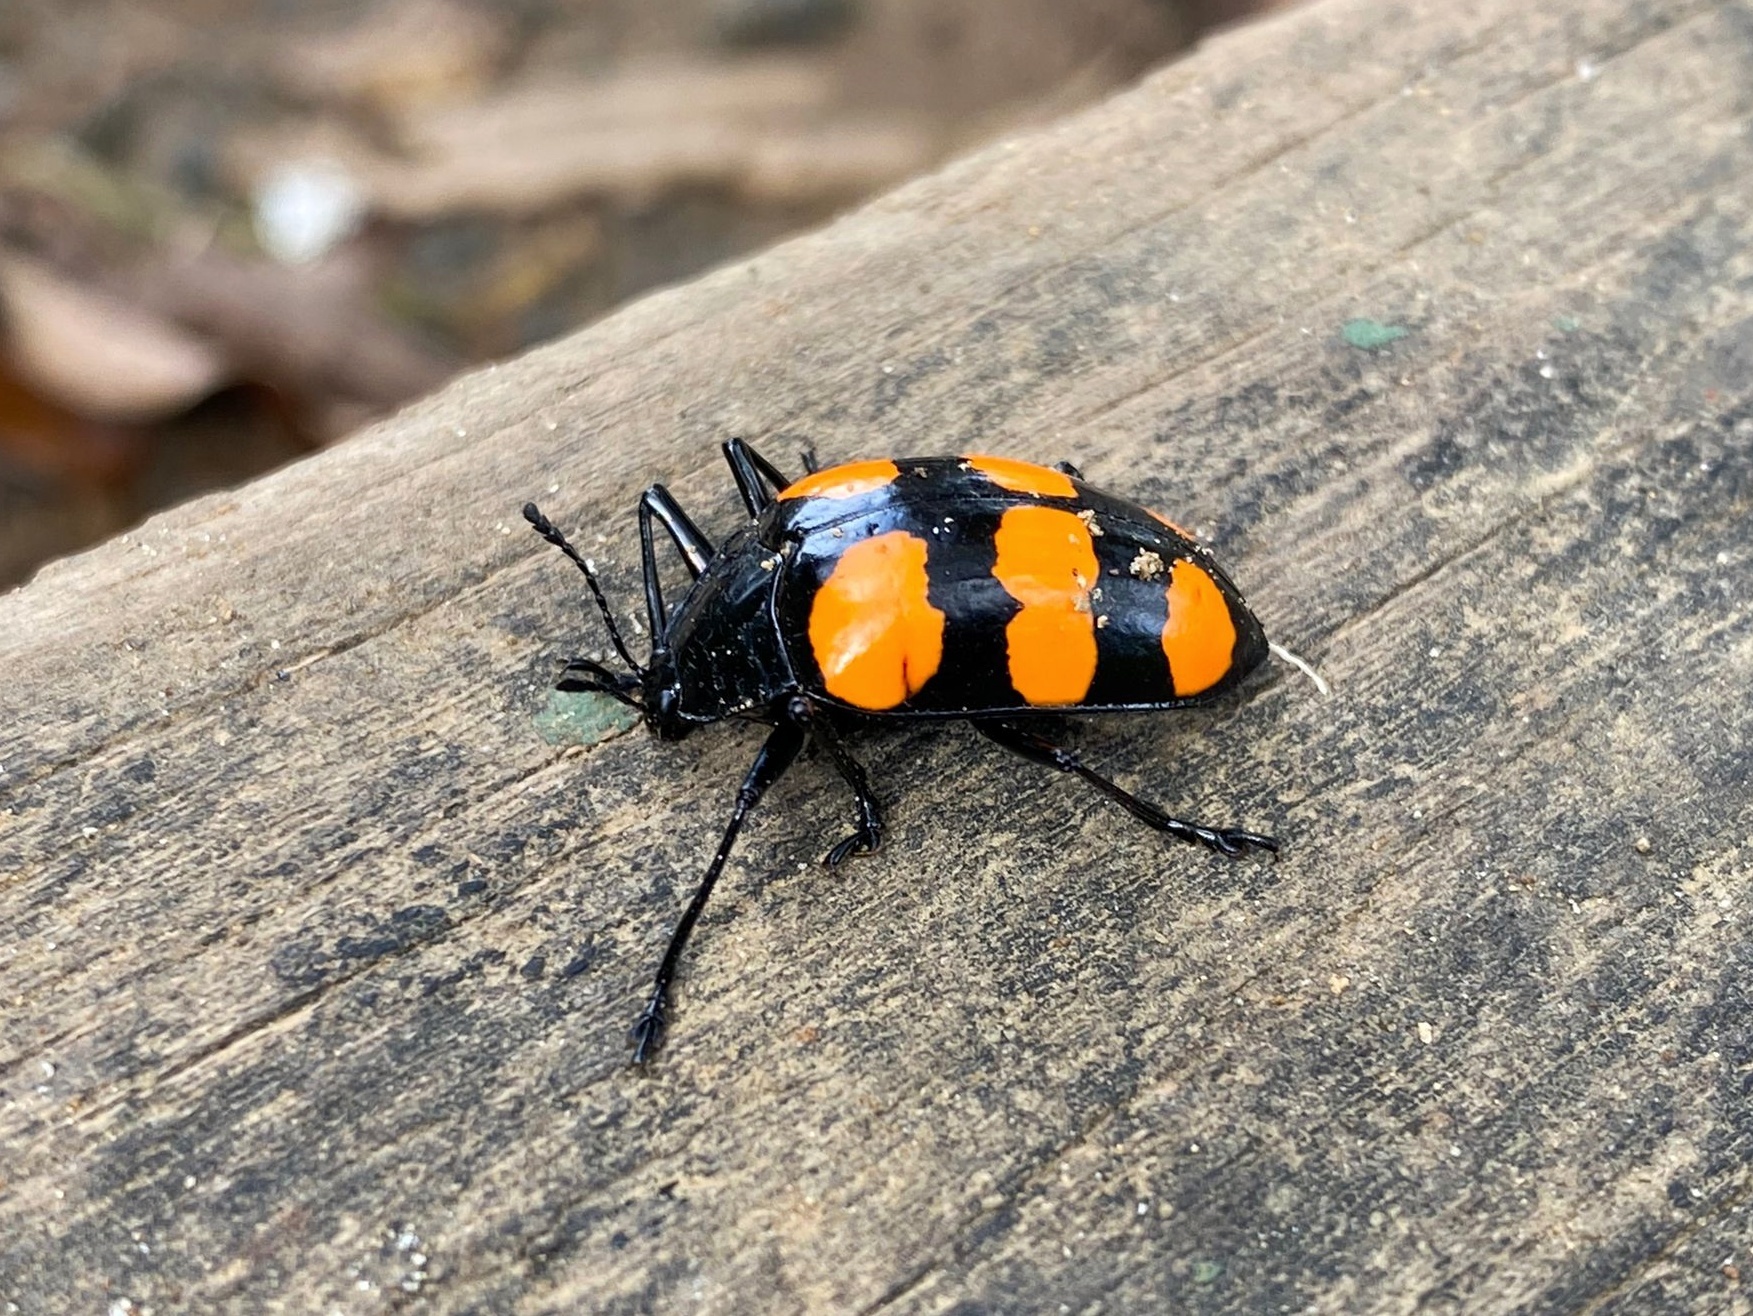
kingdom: Animalia
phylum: Arthropoda
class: Insecta
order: Coleoptera
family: Erotylidae
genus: Scaphidomorphus
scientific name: Scaphidomorphus bosci
